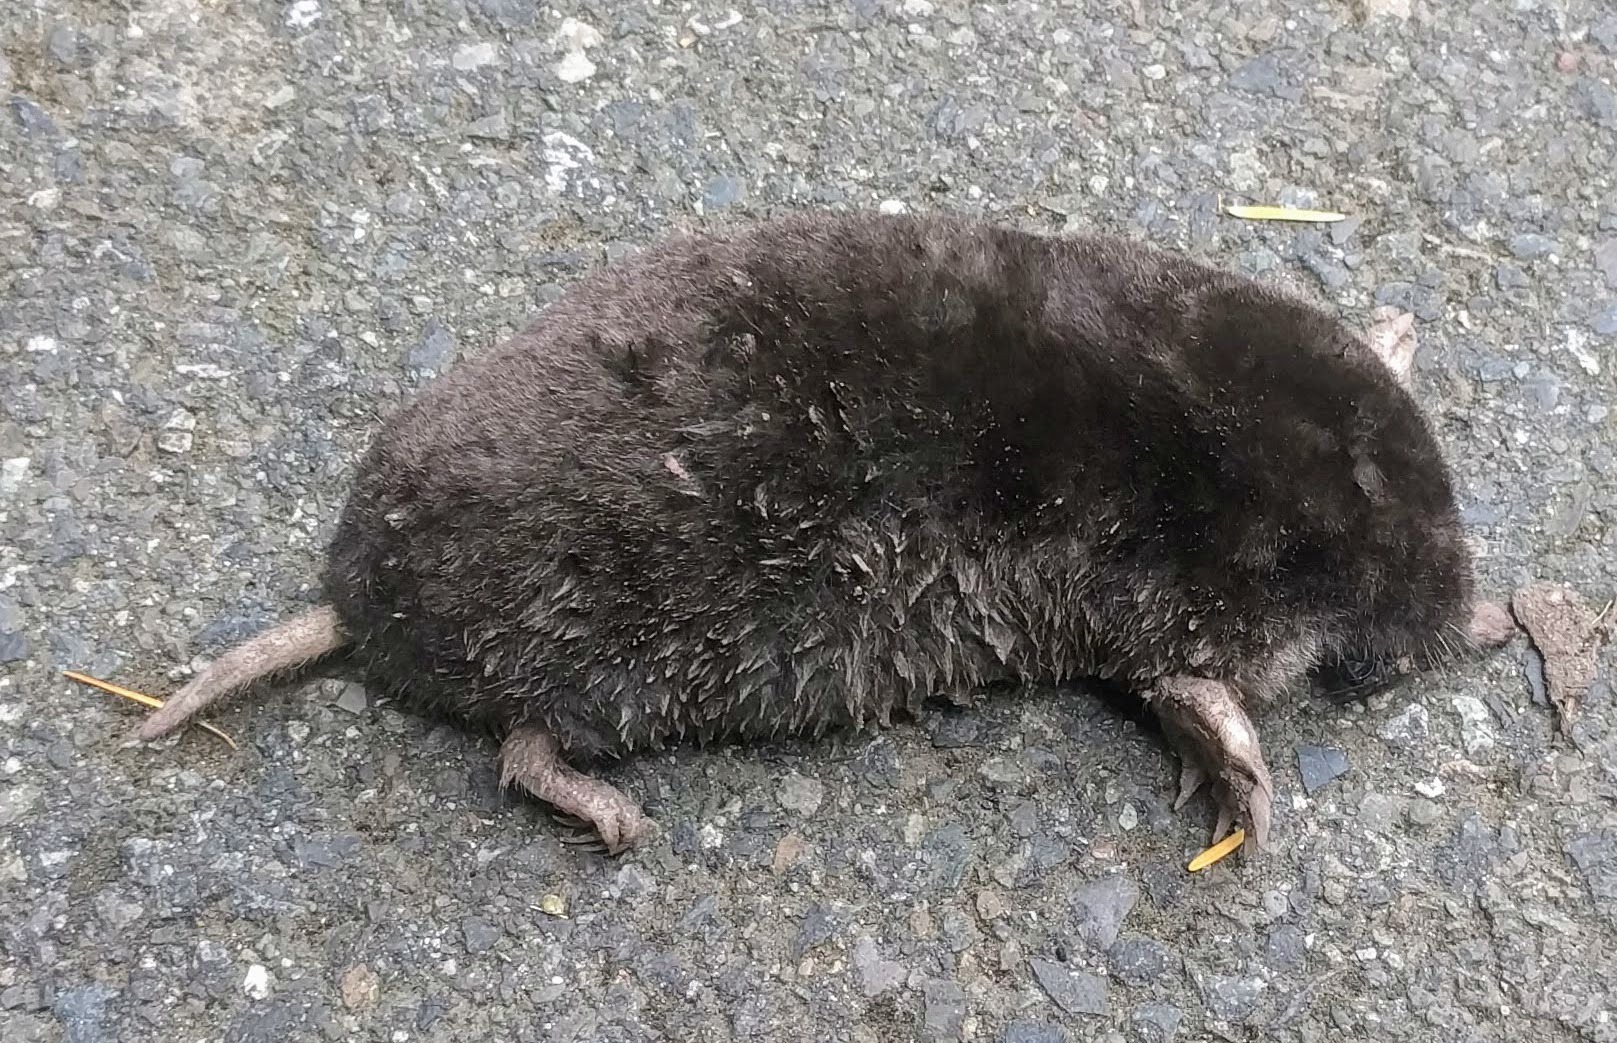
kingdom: Animalia
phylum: Chordata
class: Mammalia
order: Soricomorpha
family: Talpidae
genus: Scapanus
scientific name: Scapanus townsendii
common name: Townsend's mole
